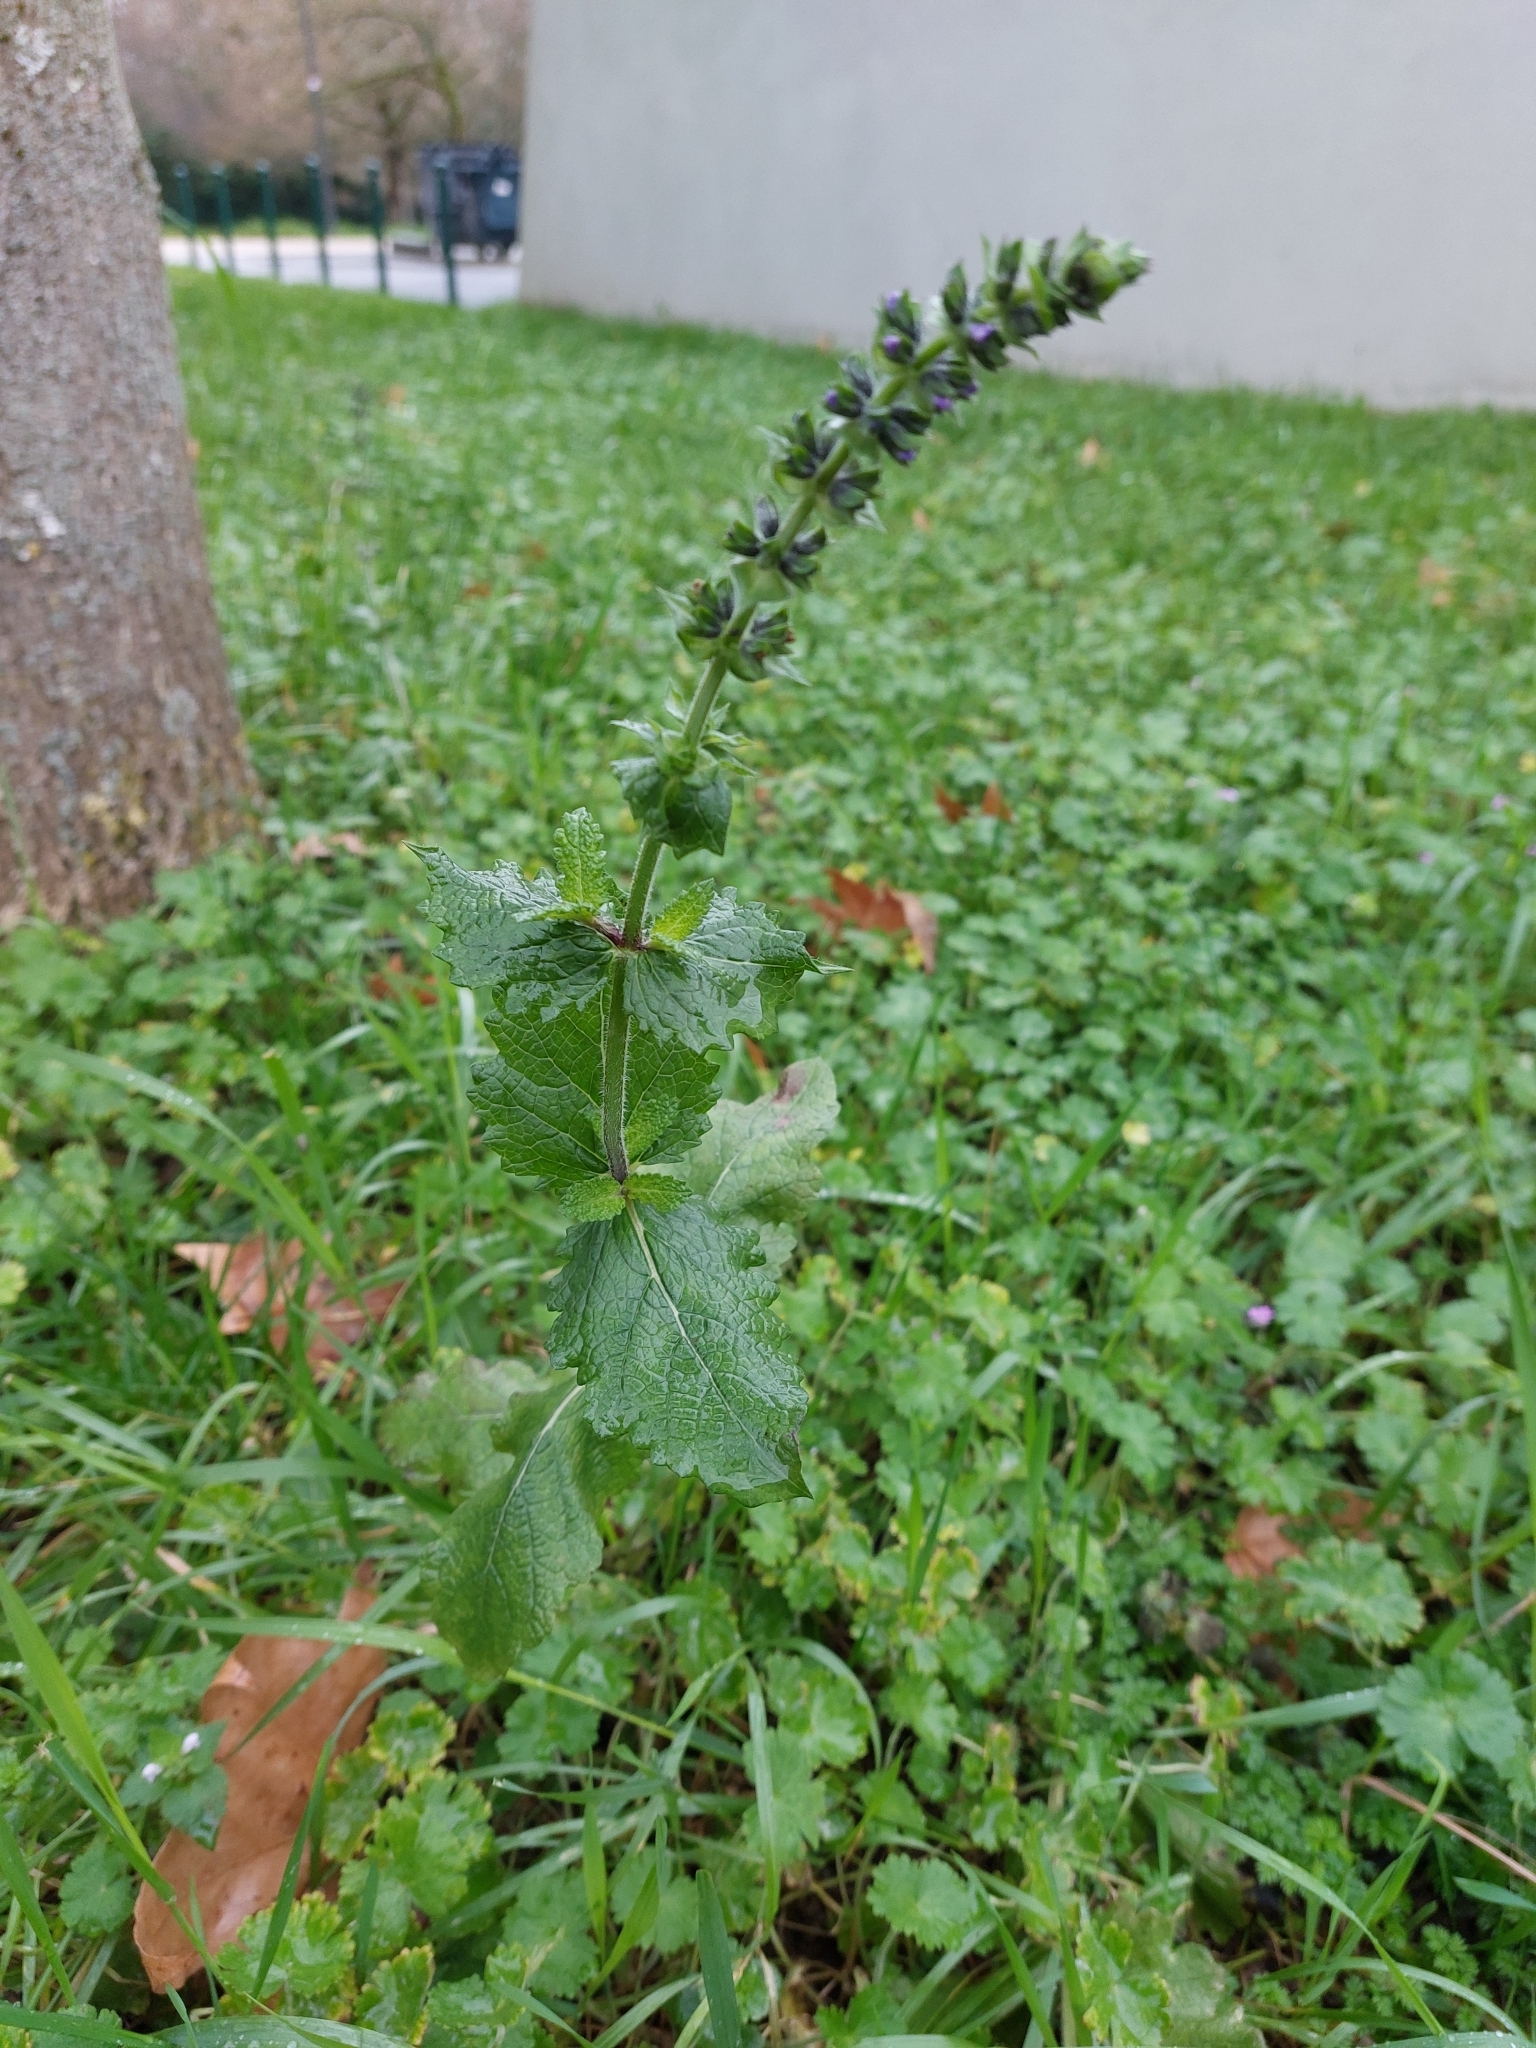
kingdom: Plantae
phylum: Tracheophyta
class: Magnoliopsida
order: Lamiales
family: Lamiaceae
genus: Salvia
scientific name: Salvia verbenaca
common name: Wild clary
